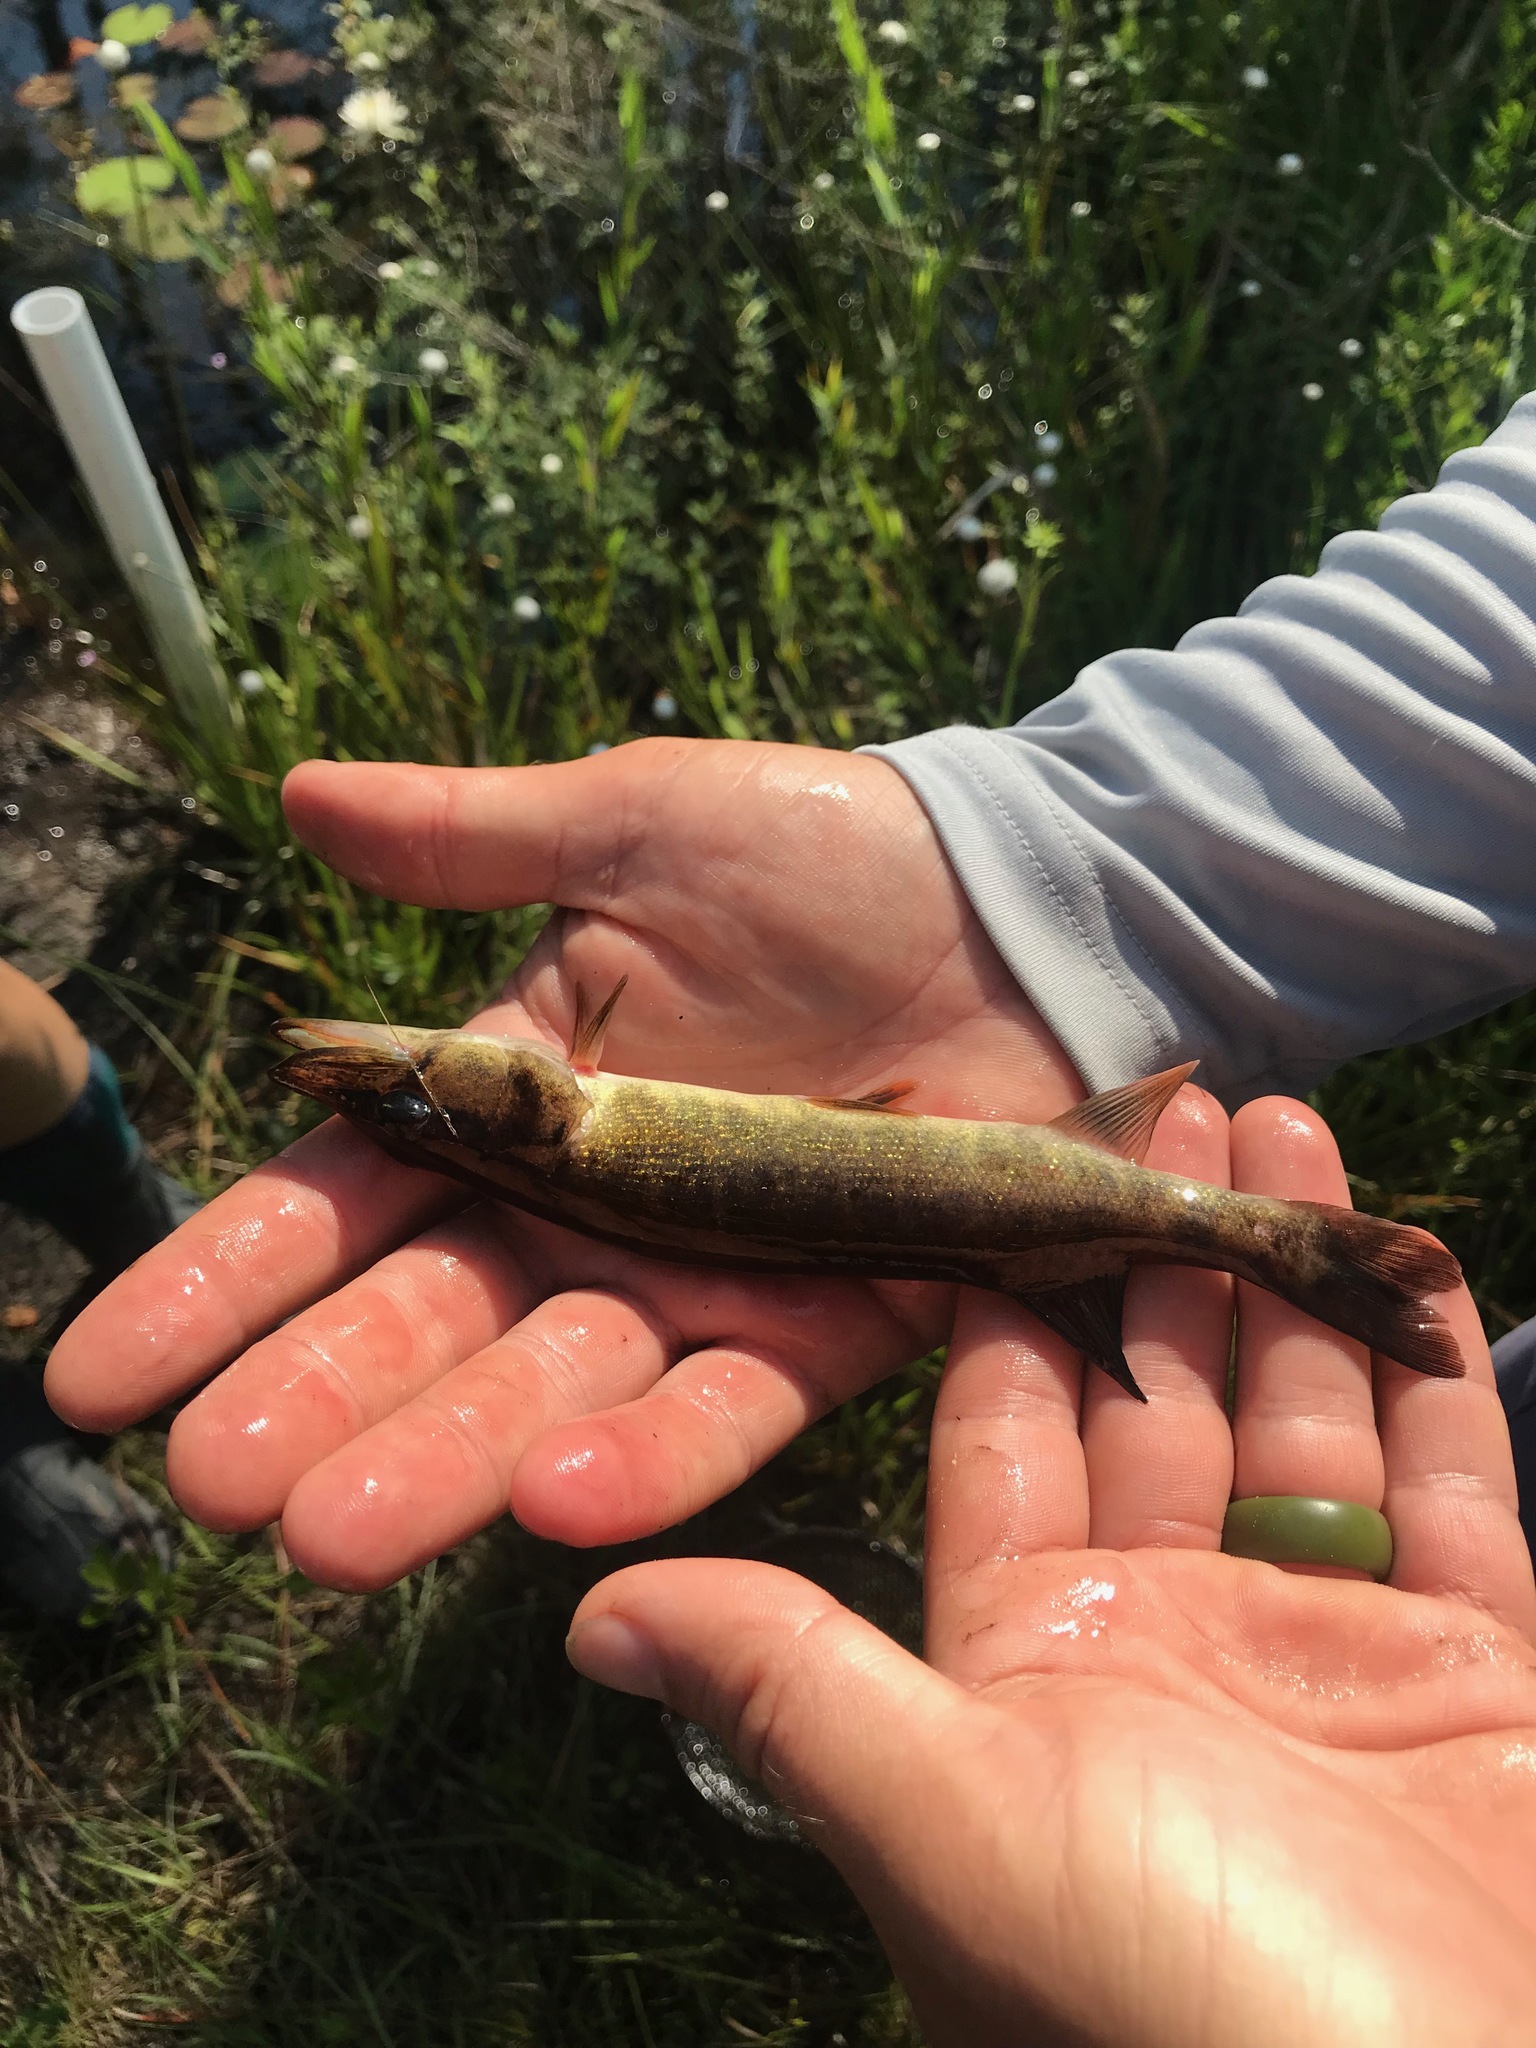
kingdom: Animalia
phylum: Chordata
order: Esociformes
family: Esocidae
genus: Esox
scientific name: Esox americanus
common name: Redfin pickerel
